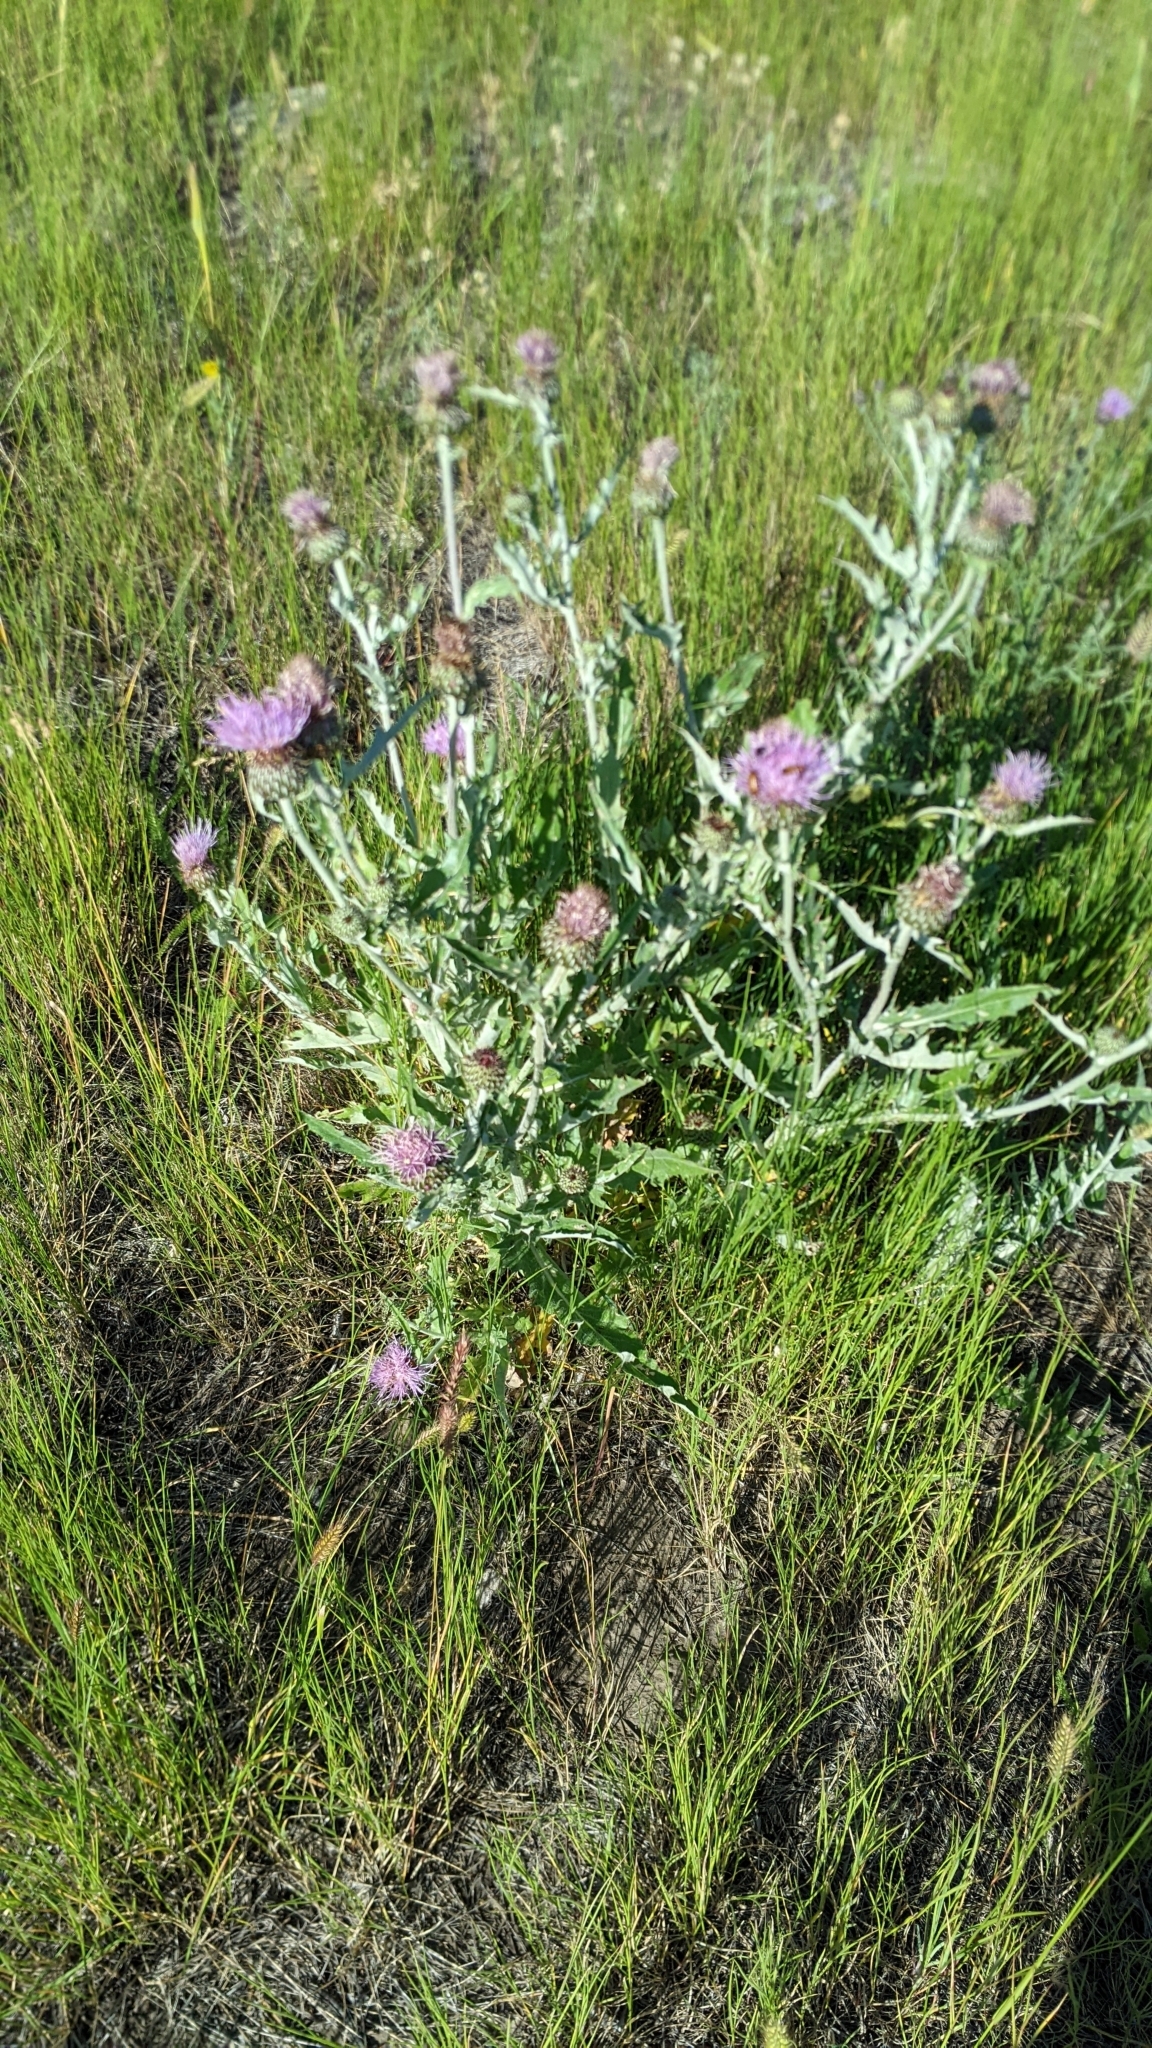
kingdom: Plantae
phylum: Tracheophyta
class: Magnoliopsida
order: Asterales
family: Asteraceae
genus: Cirsium
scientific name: Cirsium undulatum
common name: Pasture thistle
